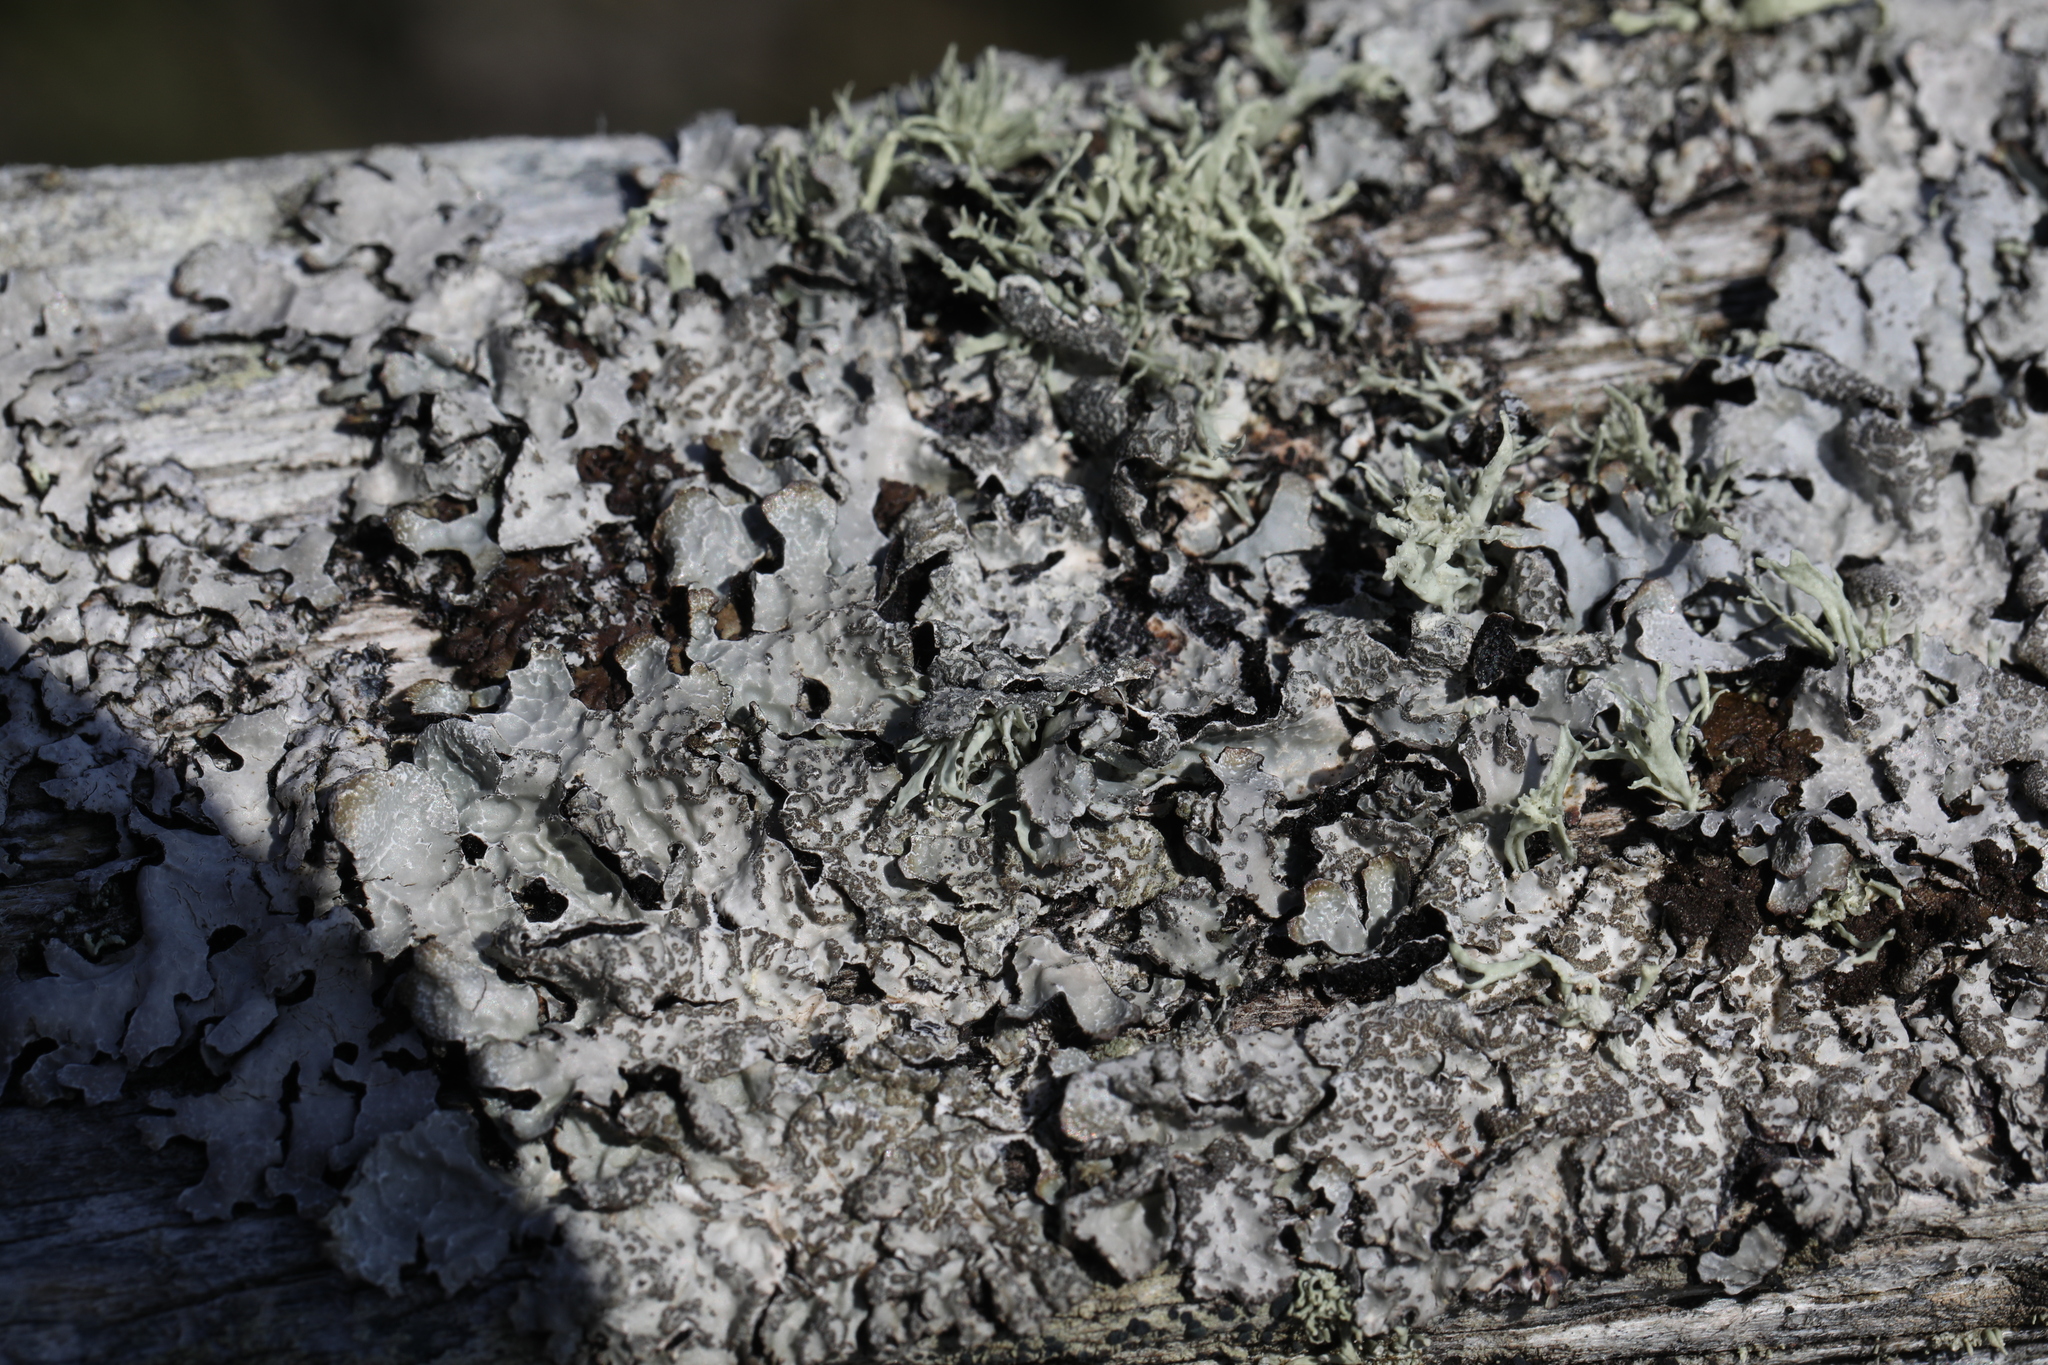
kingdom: Fungi
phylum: Ascomycota
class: Lecanoromycetes
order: Lecanorales
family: Parmeliaceae
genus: Parmelia
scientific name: Parmelia sulcata
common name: Netted shield lichen
